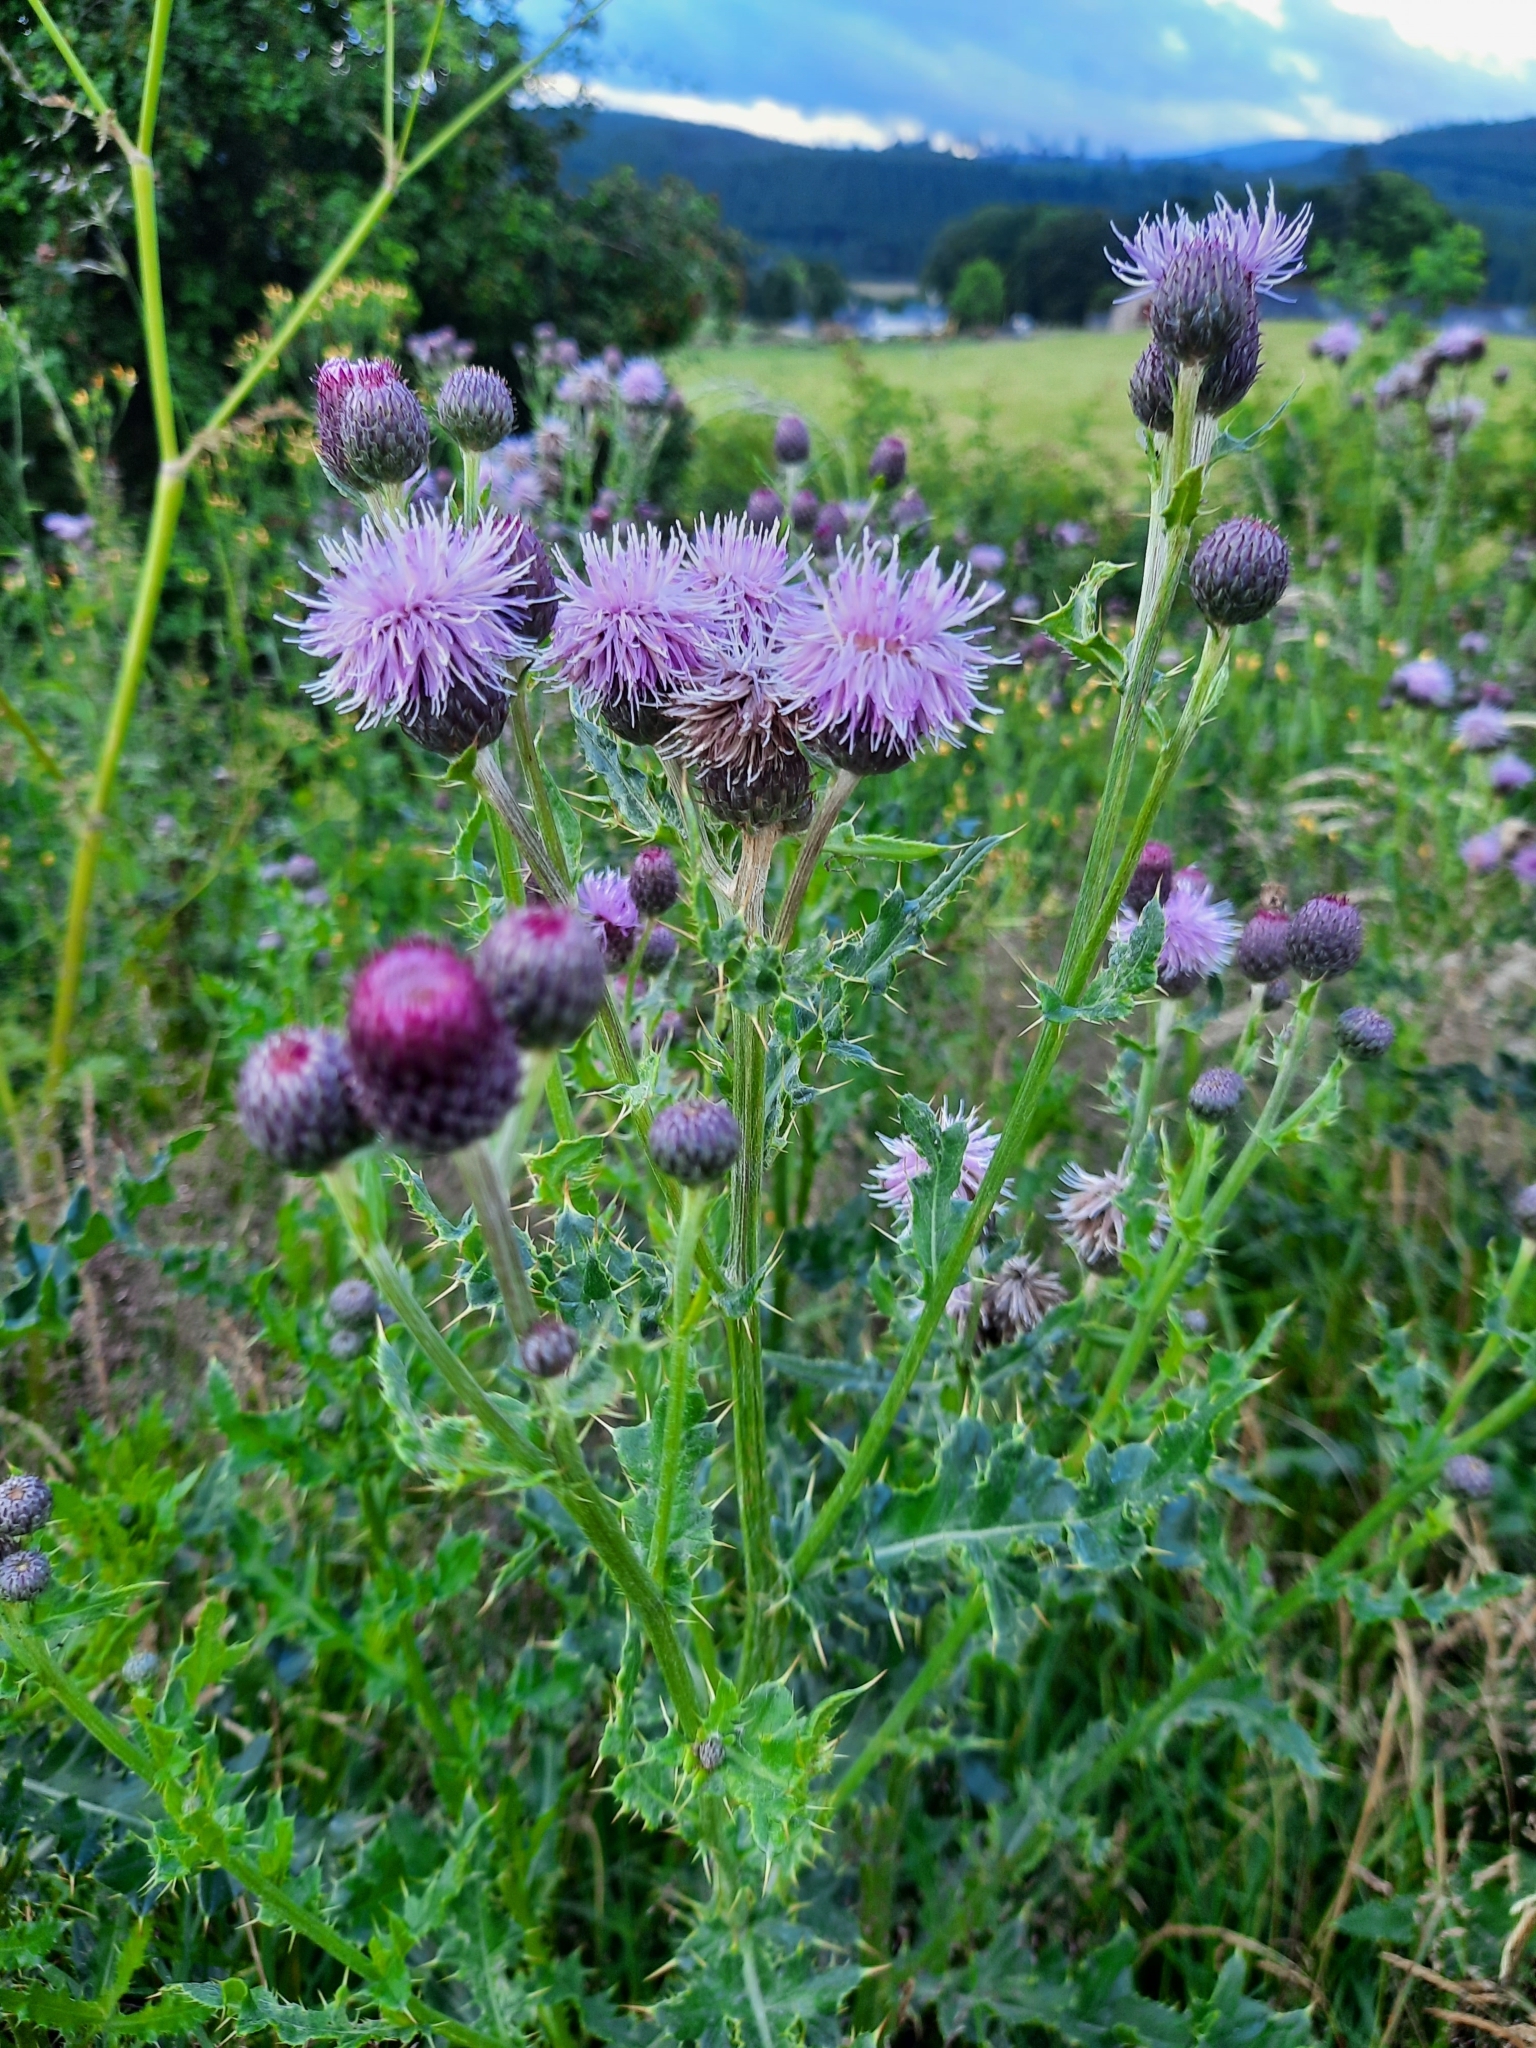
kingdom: Plantae
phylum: Tracheophyta
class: Magnoliopsida
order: Asterales
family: Asteraceae
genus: Cirsium
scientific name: Cirsium arvense
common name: Creeping thistle
